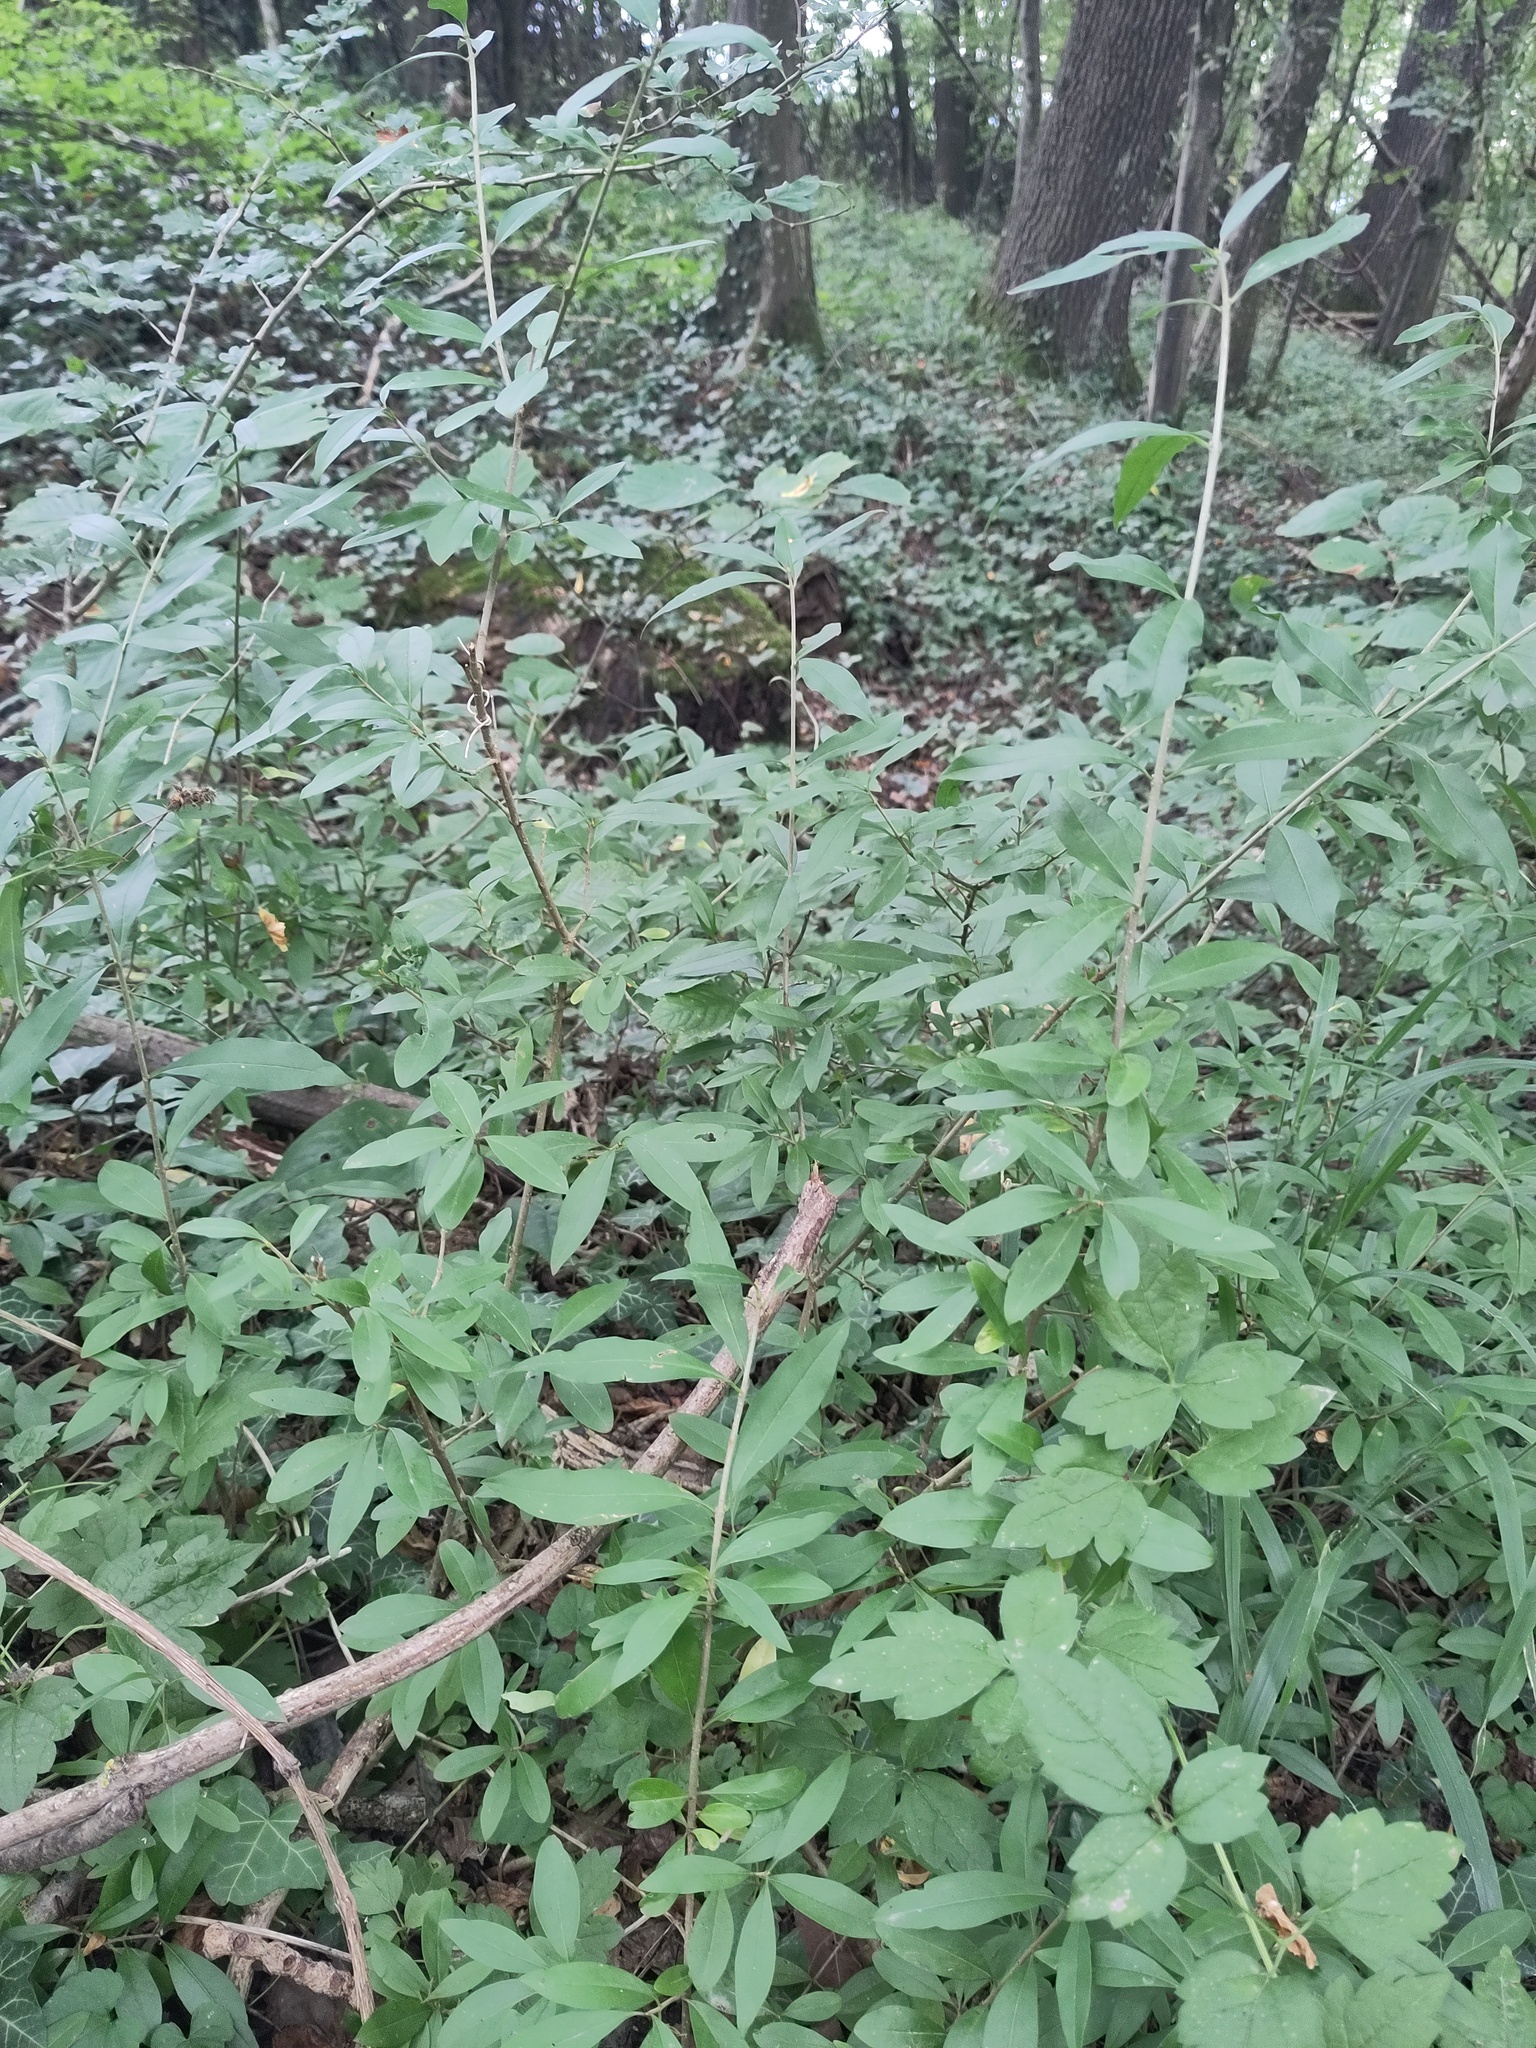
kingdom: Plantae
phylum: Tracheophyta
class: Magnoliopsida
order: Lamiales
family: Oleaceae
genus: Ligustrum
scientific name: Ligustrum vulgare
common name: Wild privet
